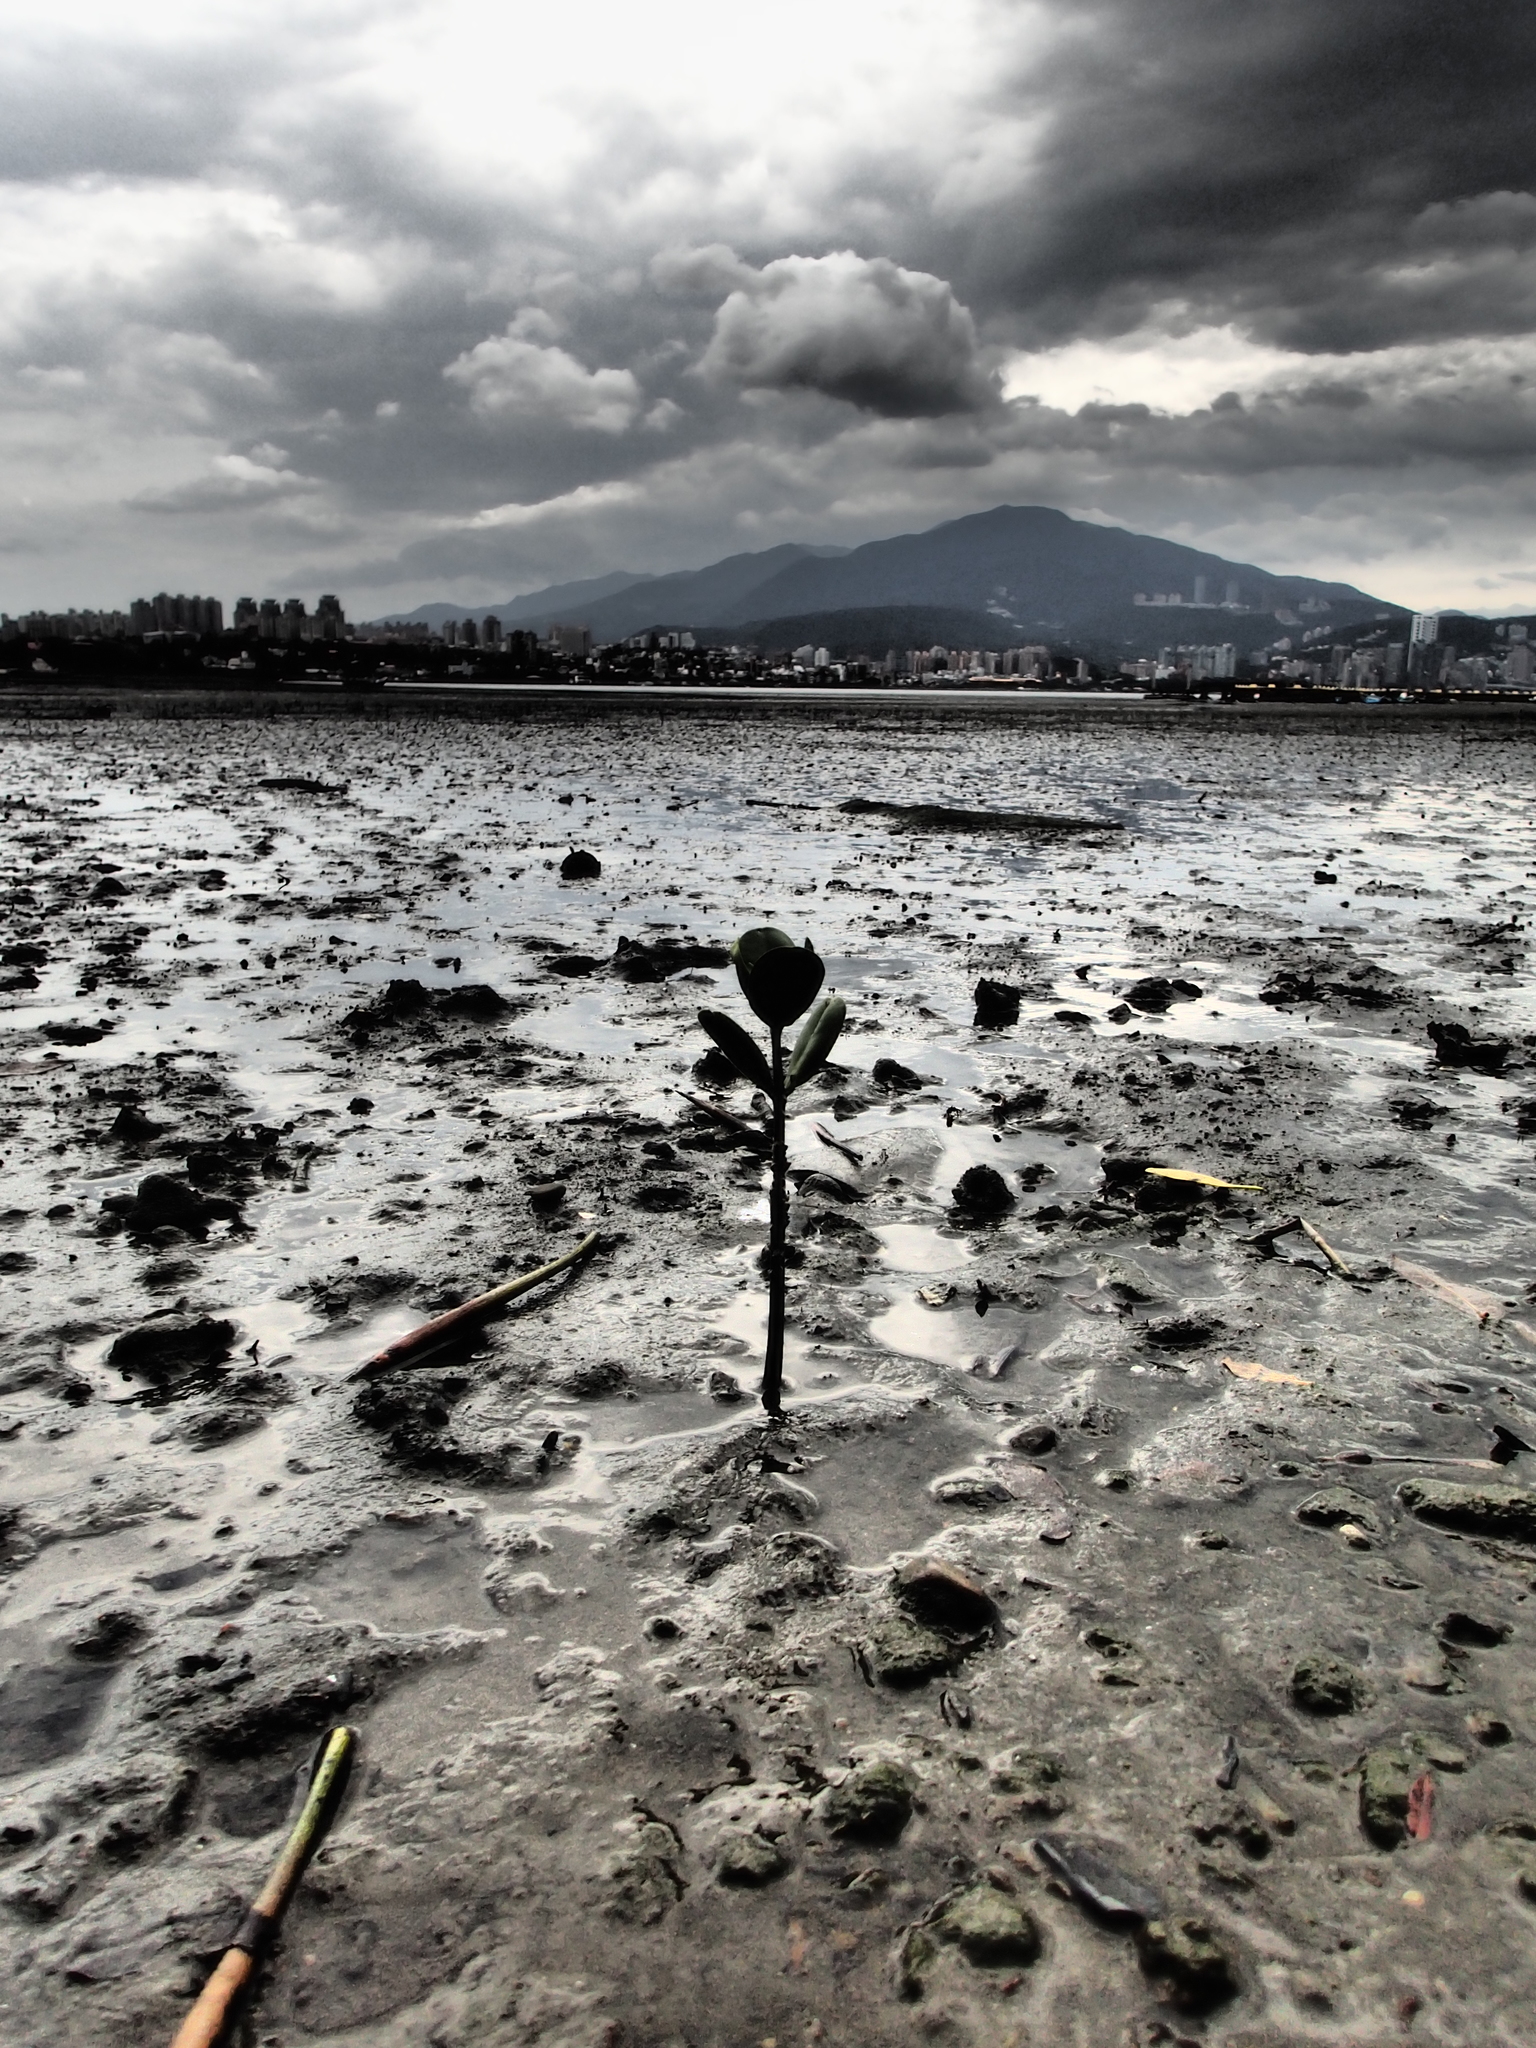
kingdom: Plantae
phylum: Tracheophyta
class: Magnoliopsida
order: Malpighiales
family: Rhizophoraceae
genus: Kandelia
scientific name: Kandelia obovata
